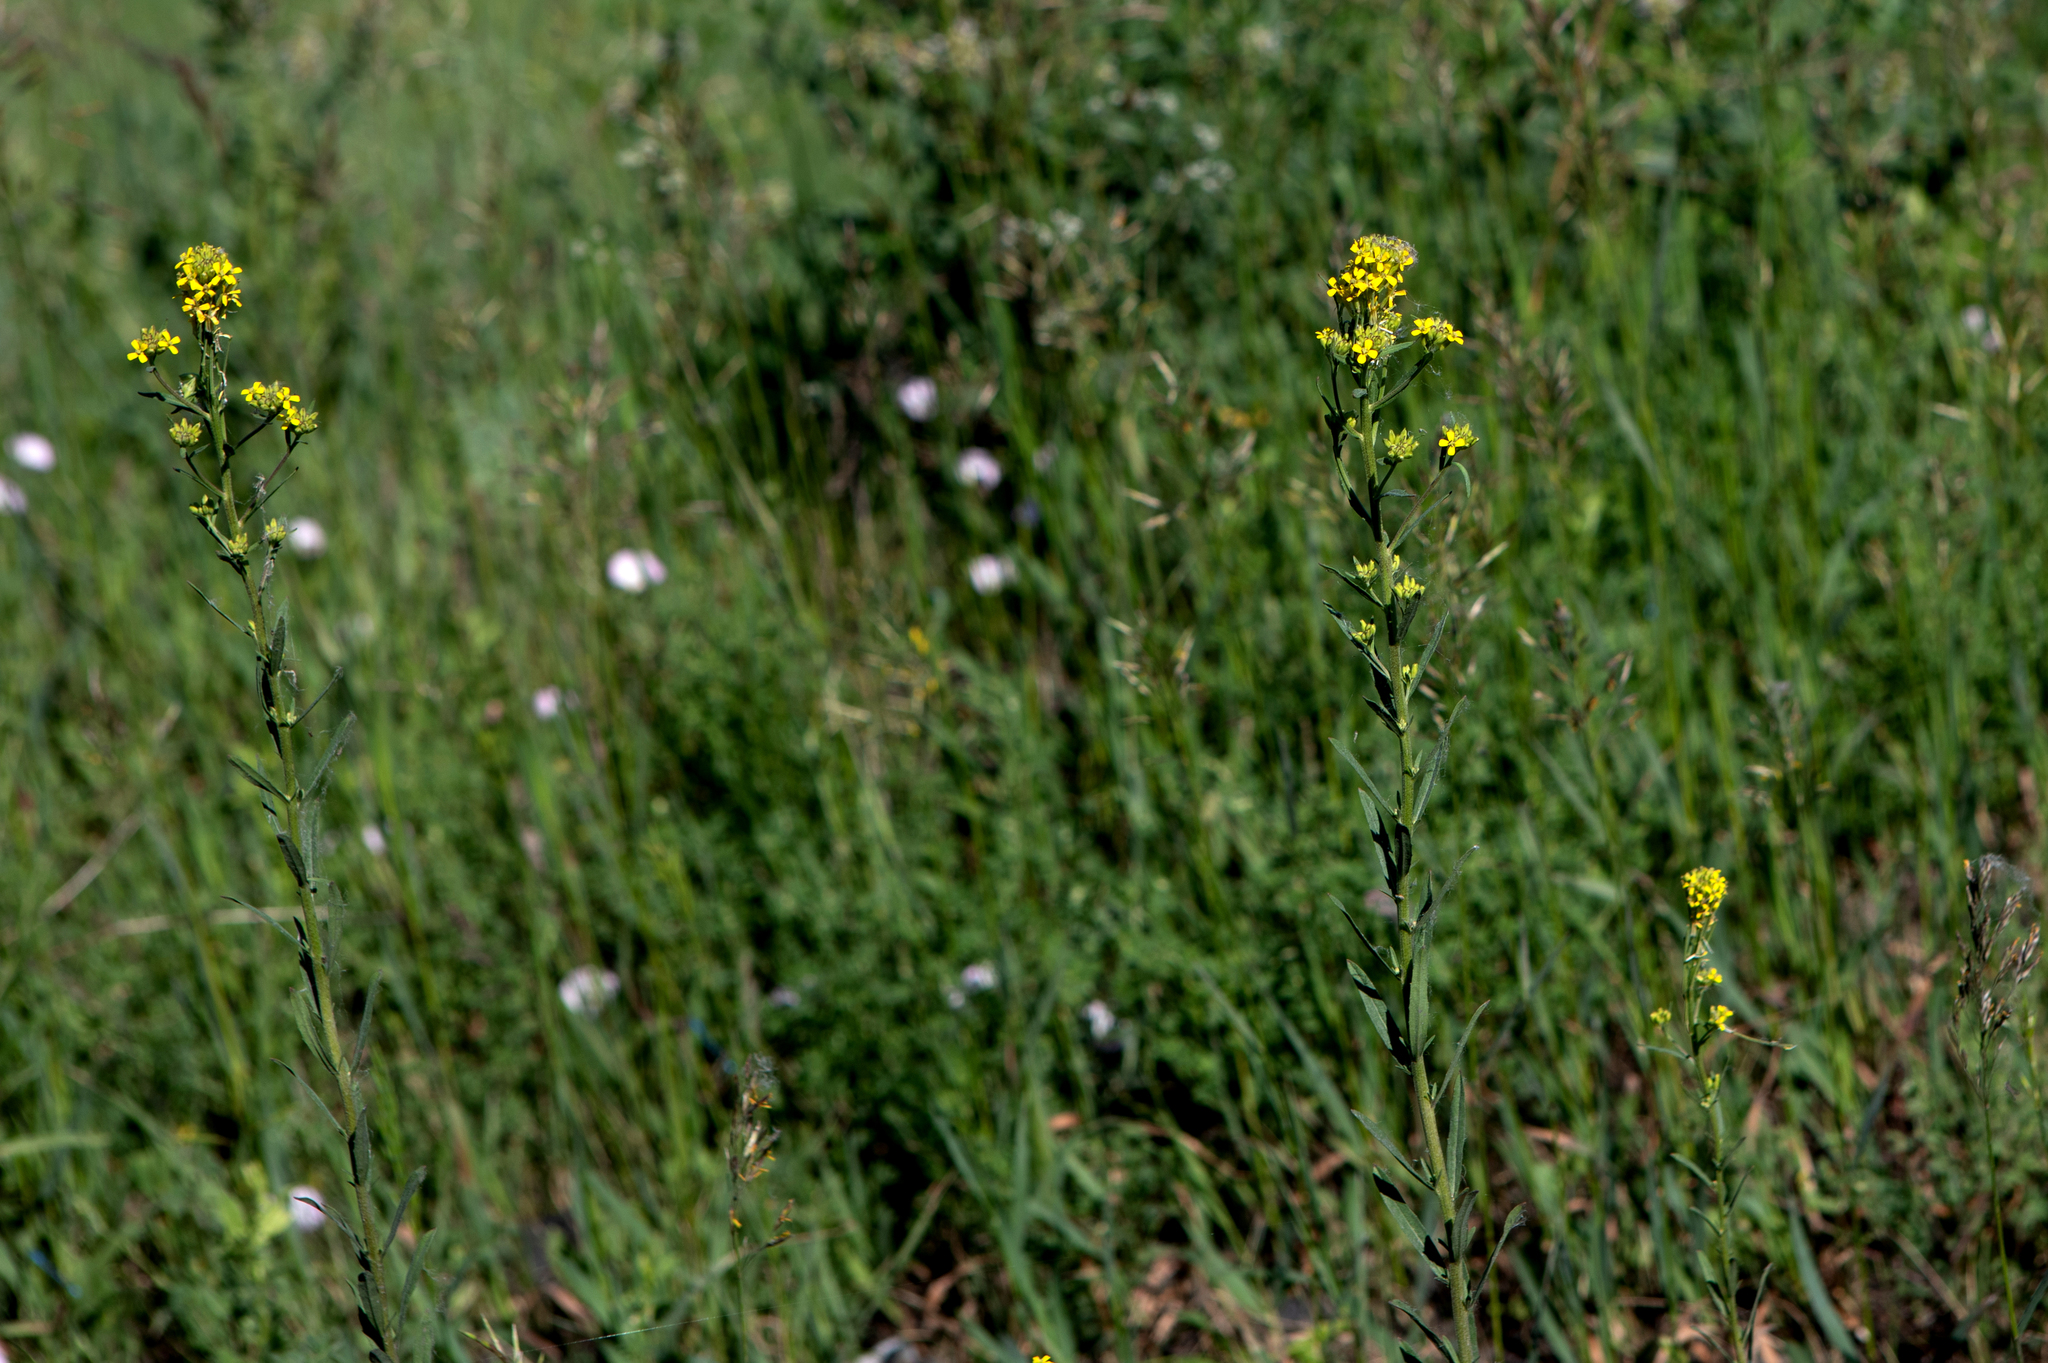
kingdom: Plantae
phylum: Tracheophyta
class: Magnoliopsida
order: Brassicales
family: Brassicaceae
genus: Erysimum
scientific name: Erysimum hieraciifolium
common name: European wallflower
